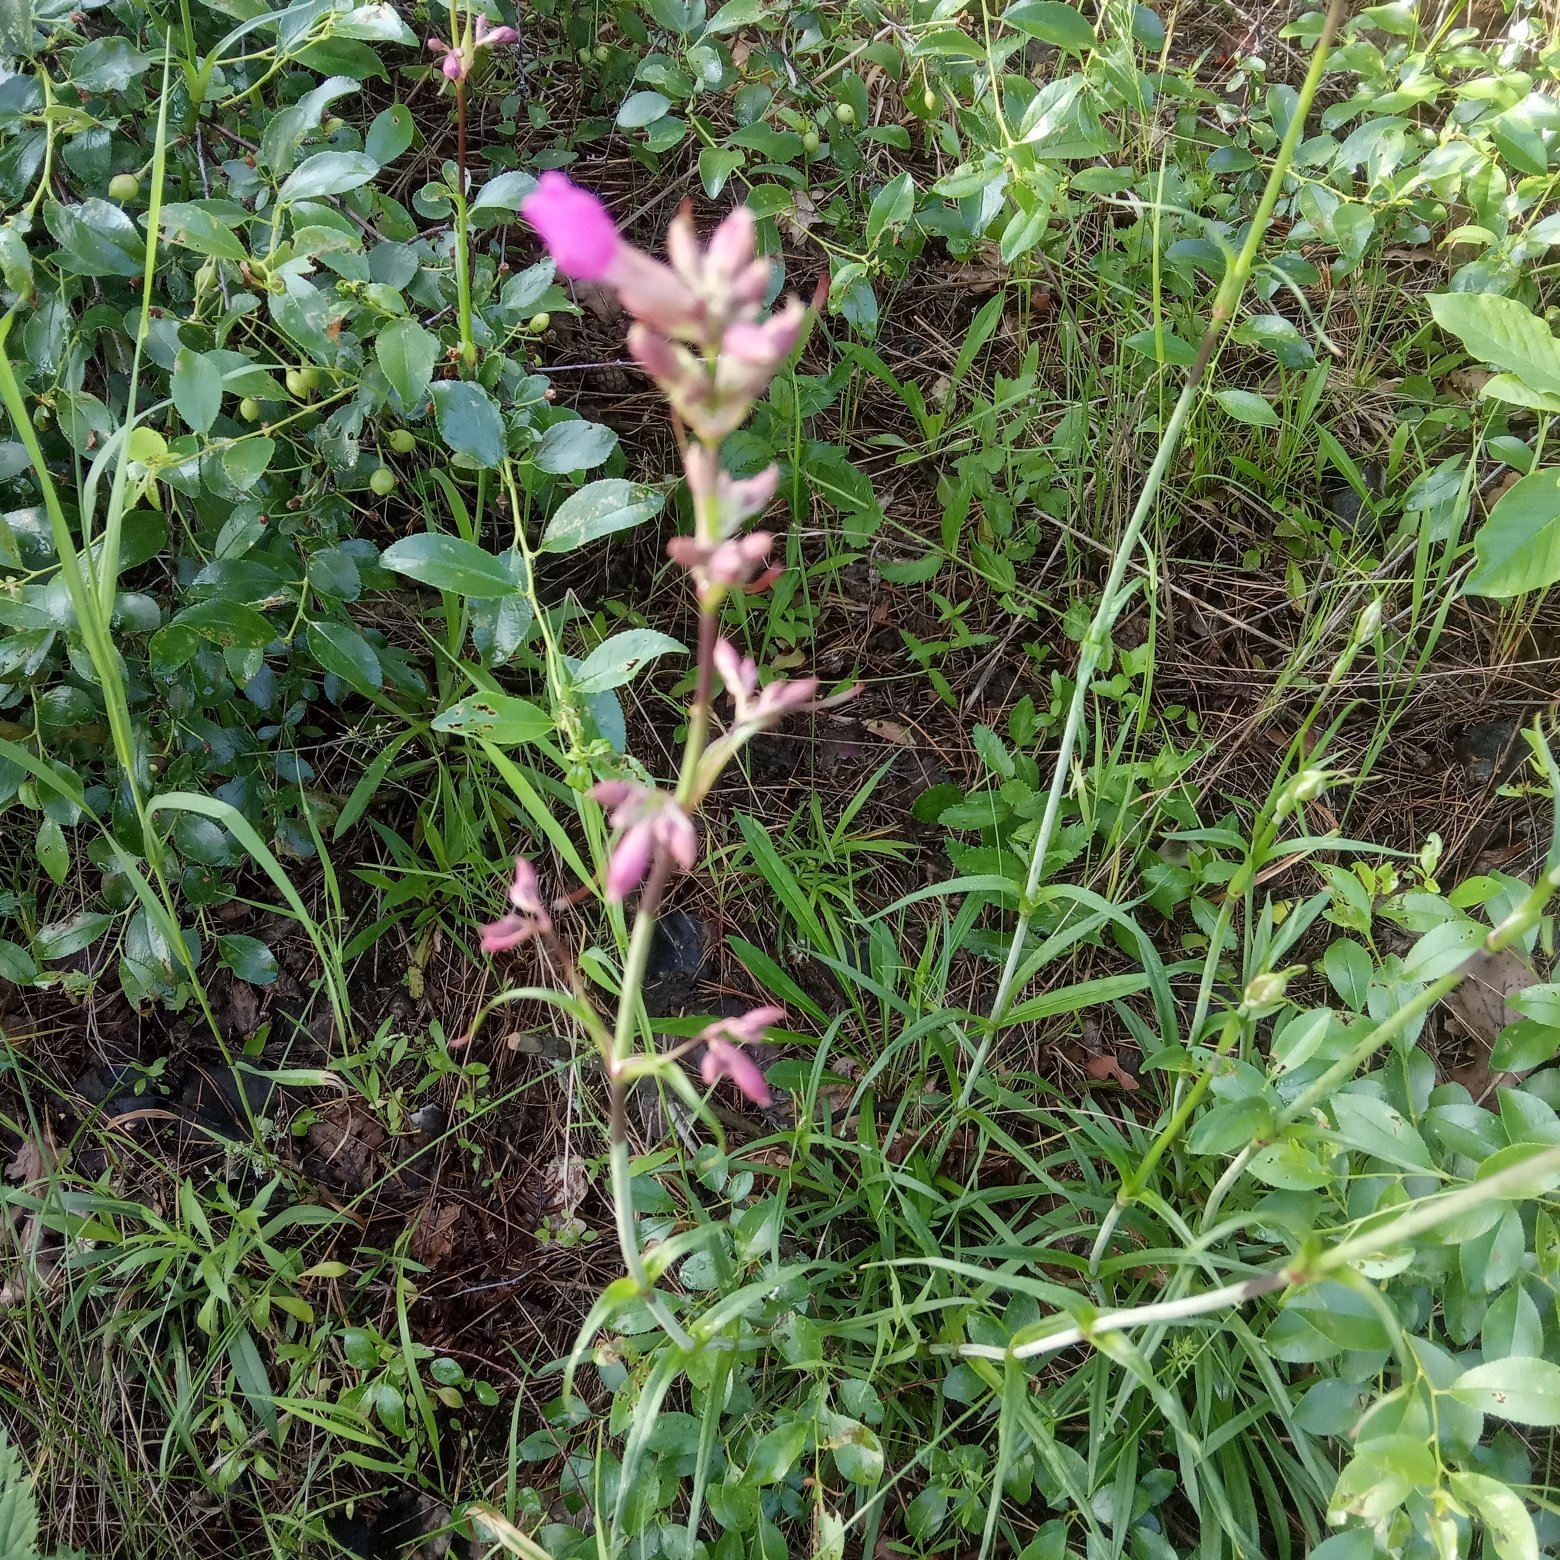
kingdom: Plantae
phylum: Tracheophyta
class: Magnoliopsida
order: Caryophyllales
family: Caryophyllaceae
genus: Viscaria
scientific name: Viscaria vulgaris
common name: Clammy campion
